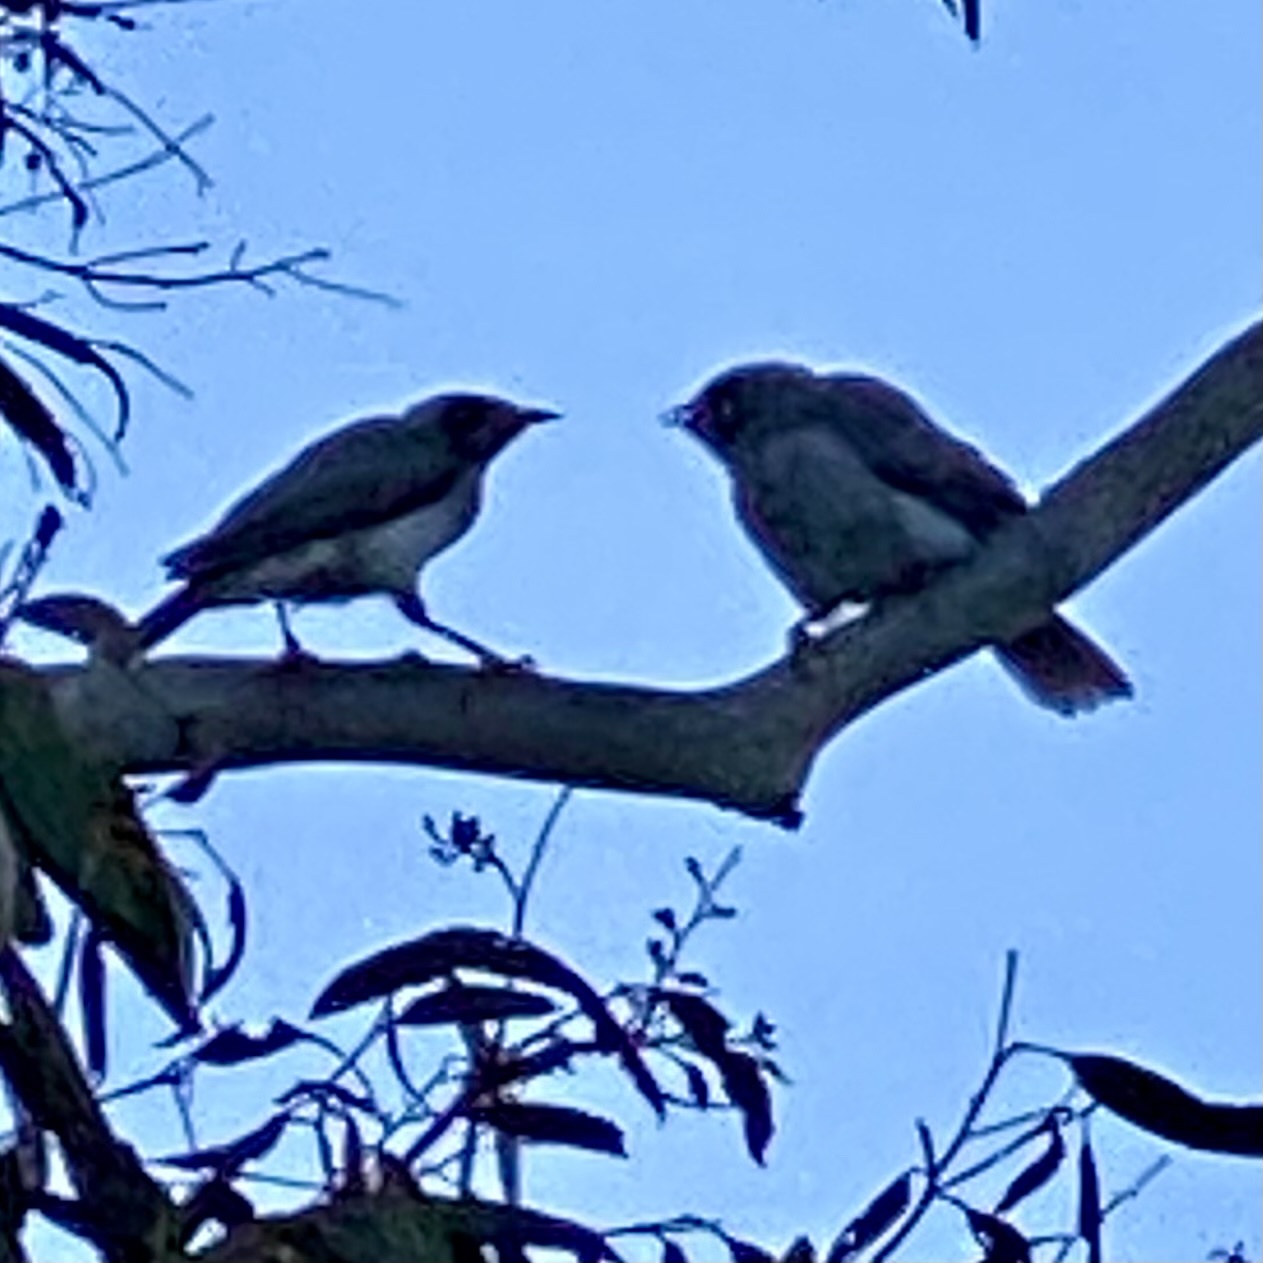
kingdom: Animalia
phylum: Chordata
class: Aves
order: Passeriformes
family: Meliphagidae
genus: Manorina
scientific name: Manorina melanocephala
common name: Noisy miner
